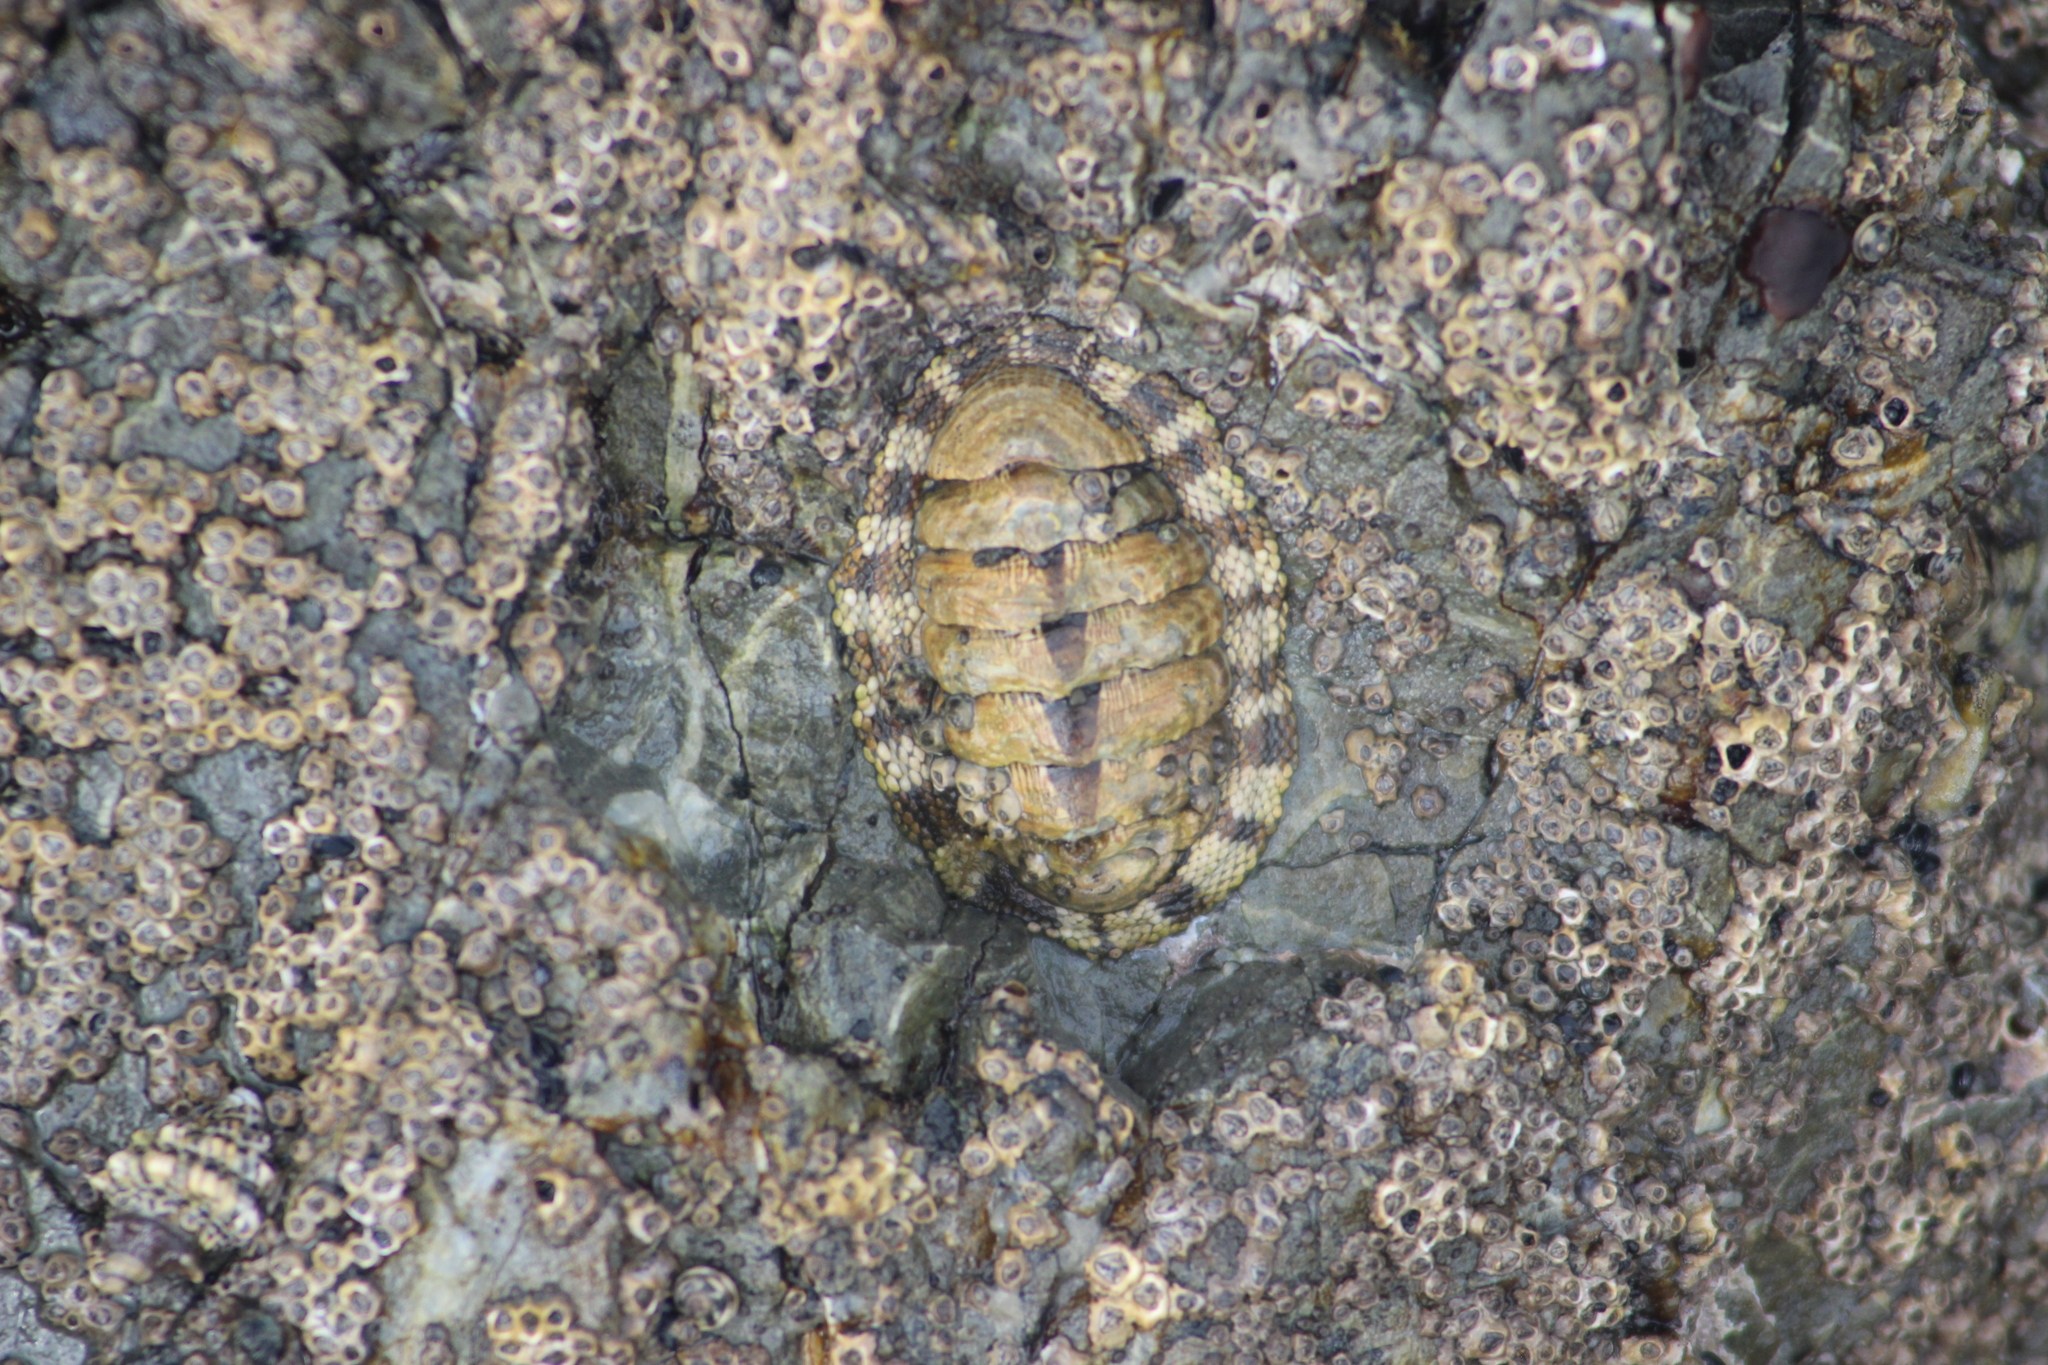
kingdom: Animalia
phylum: Mollusca
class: Polyplacophora
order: Chitonida
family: Chitonidae
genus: Sypharochiton
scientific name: Sypharochiton pelliserpentis
